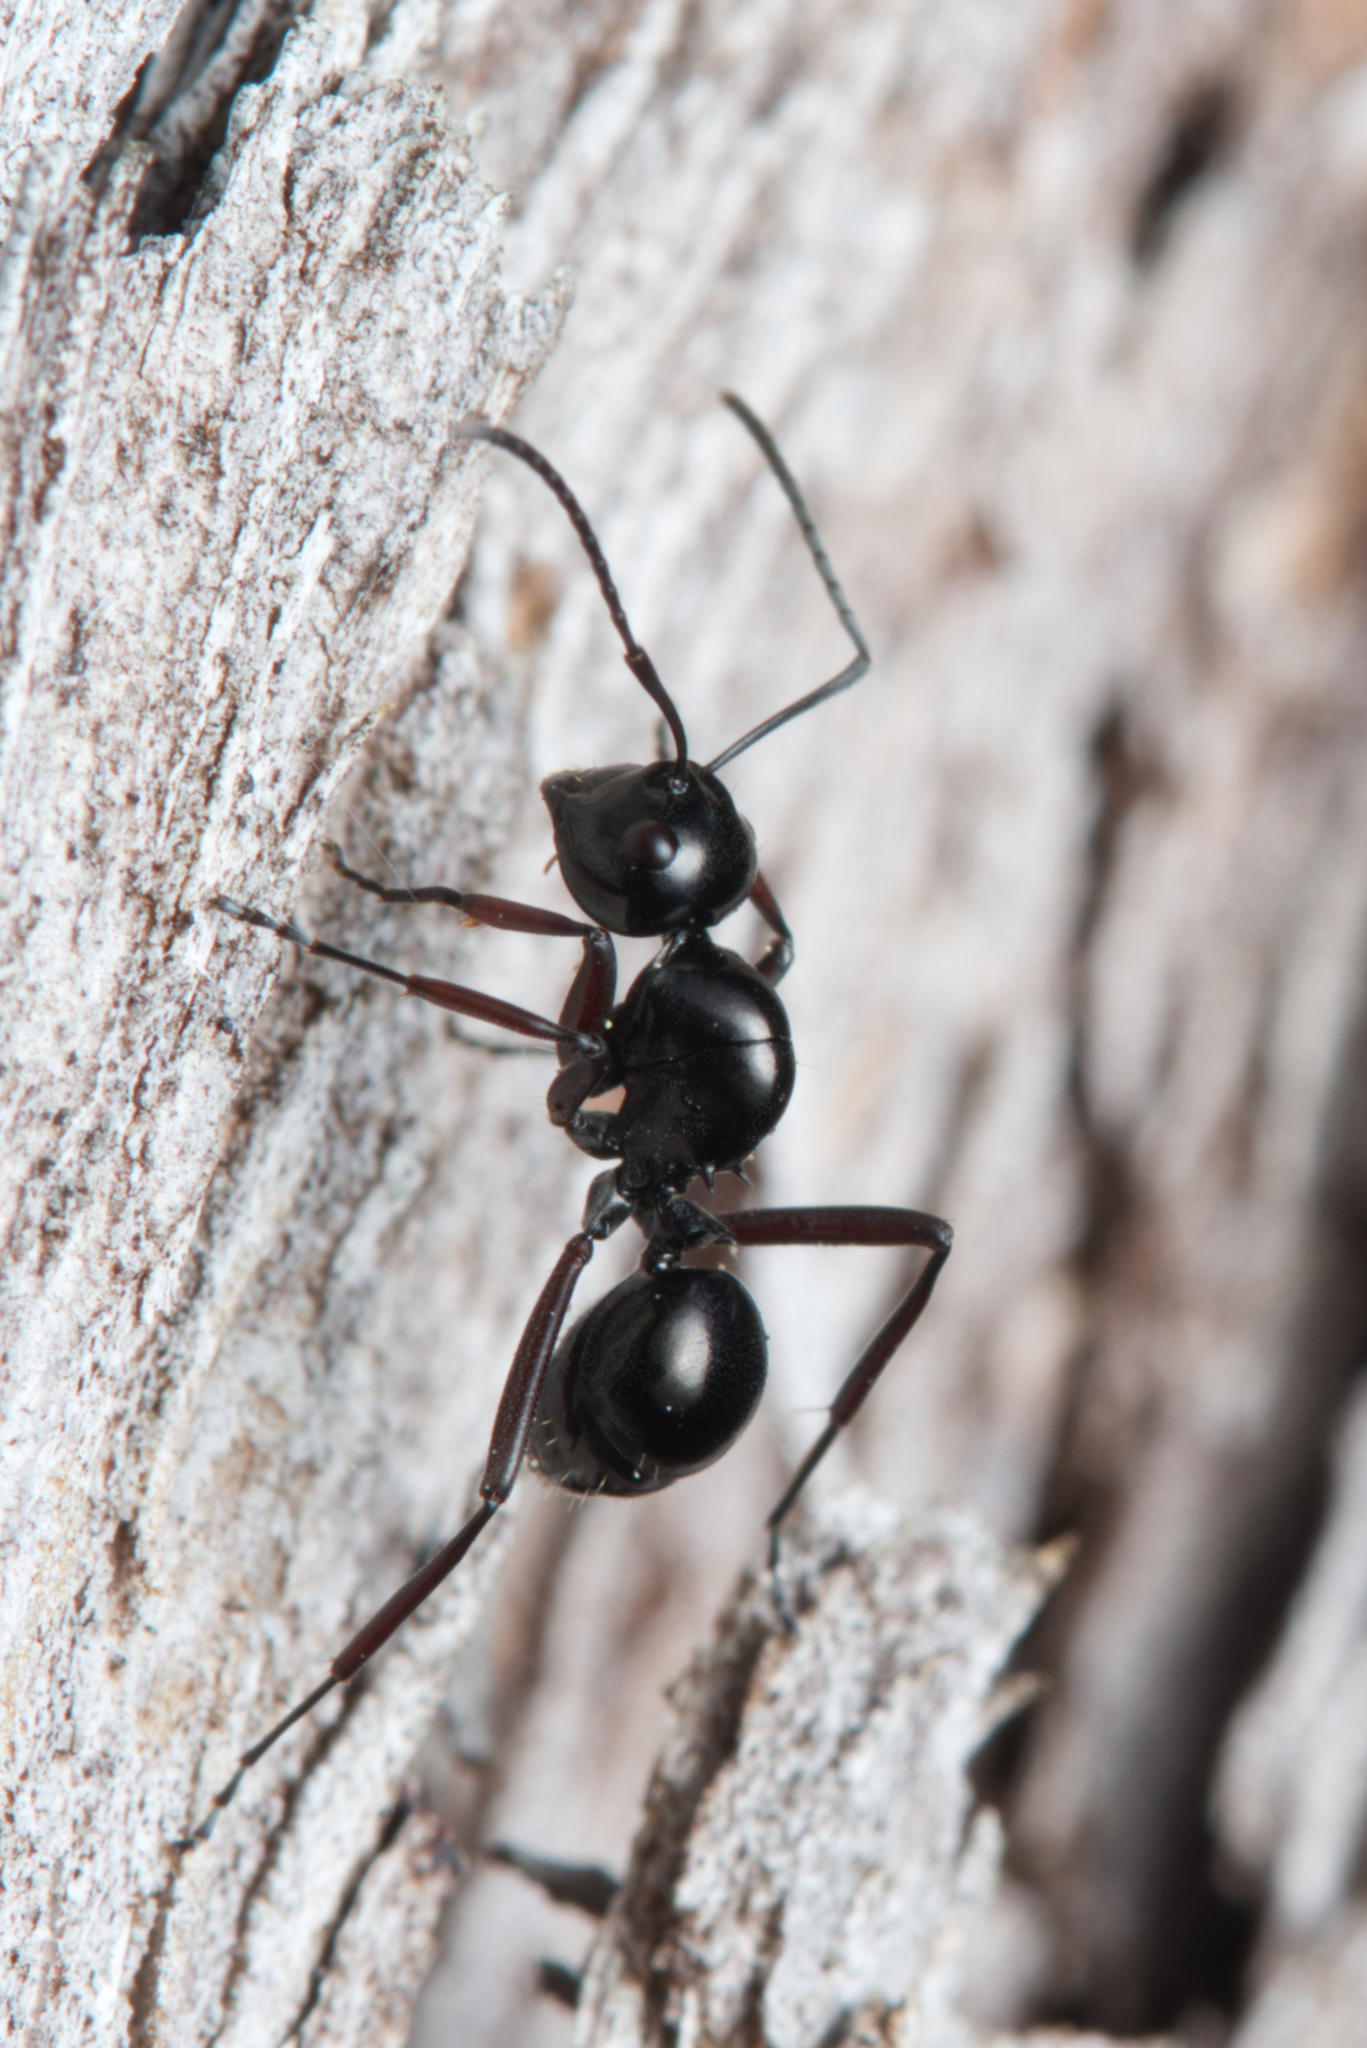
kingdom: Animalia
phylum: Arthropoda
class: Insecta
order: Hymenoptera
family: Formicidae
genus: Polyrhachis
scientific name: Polyrhachis australis
